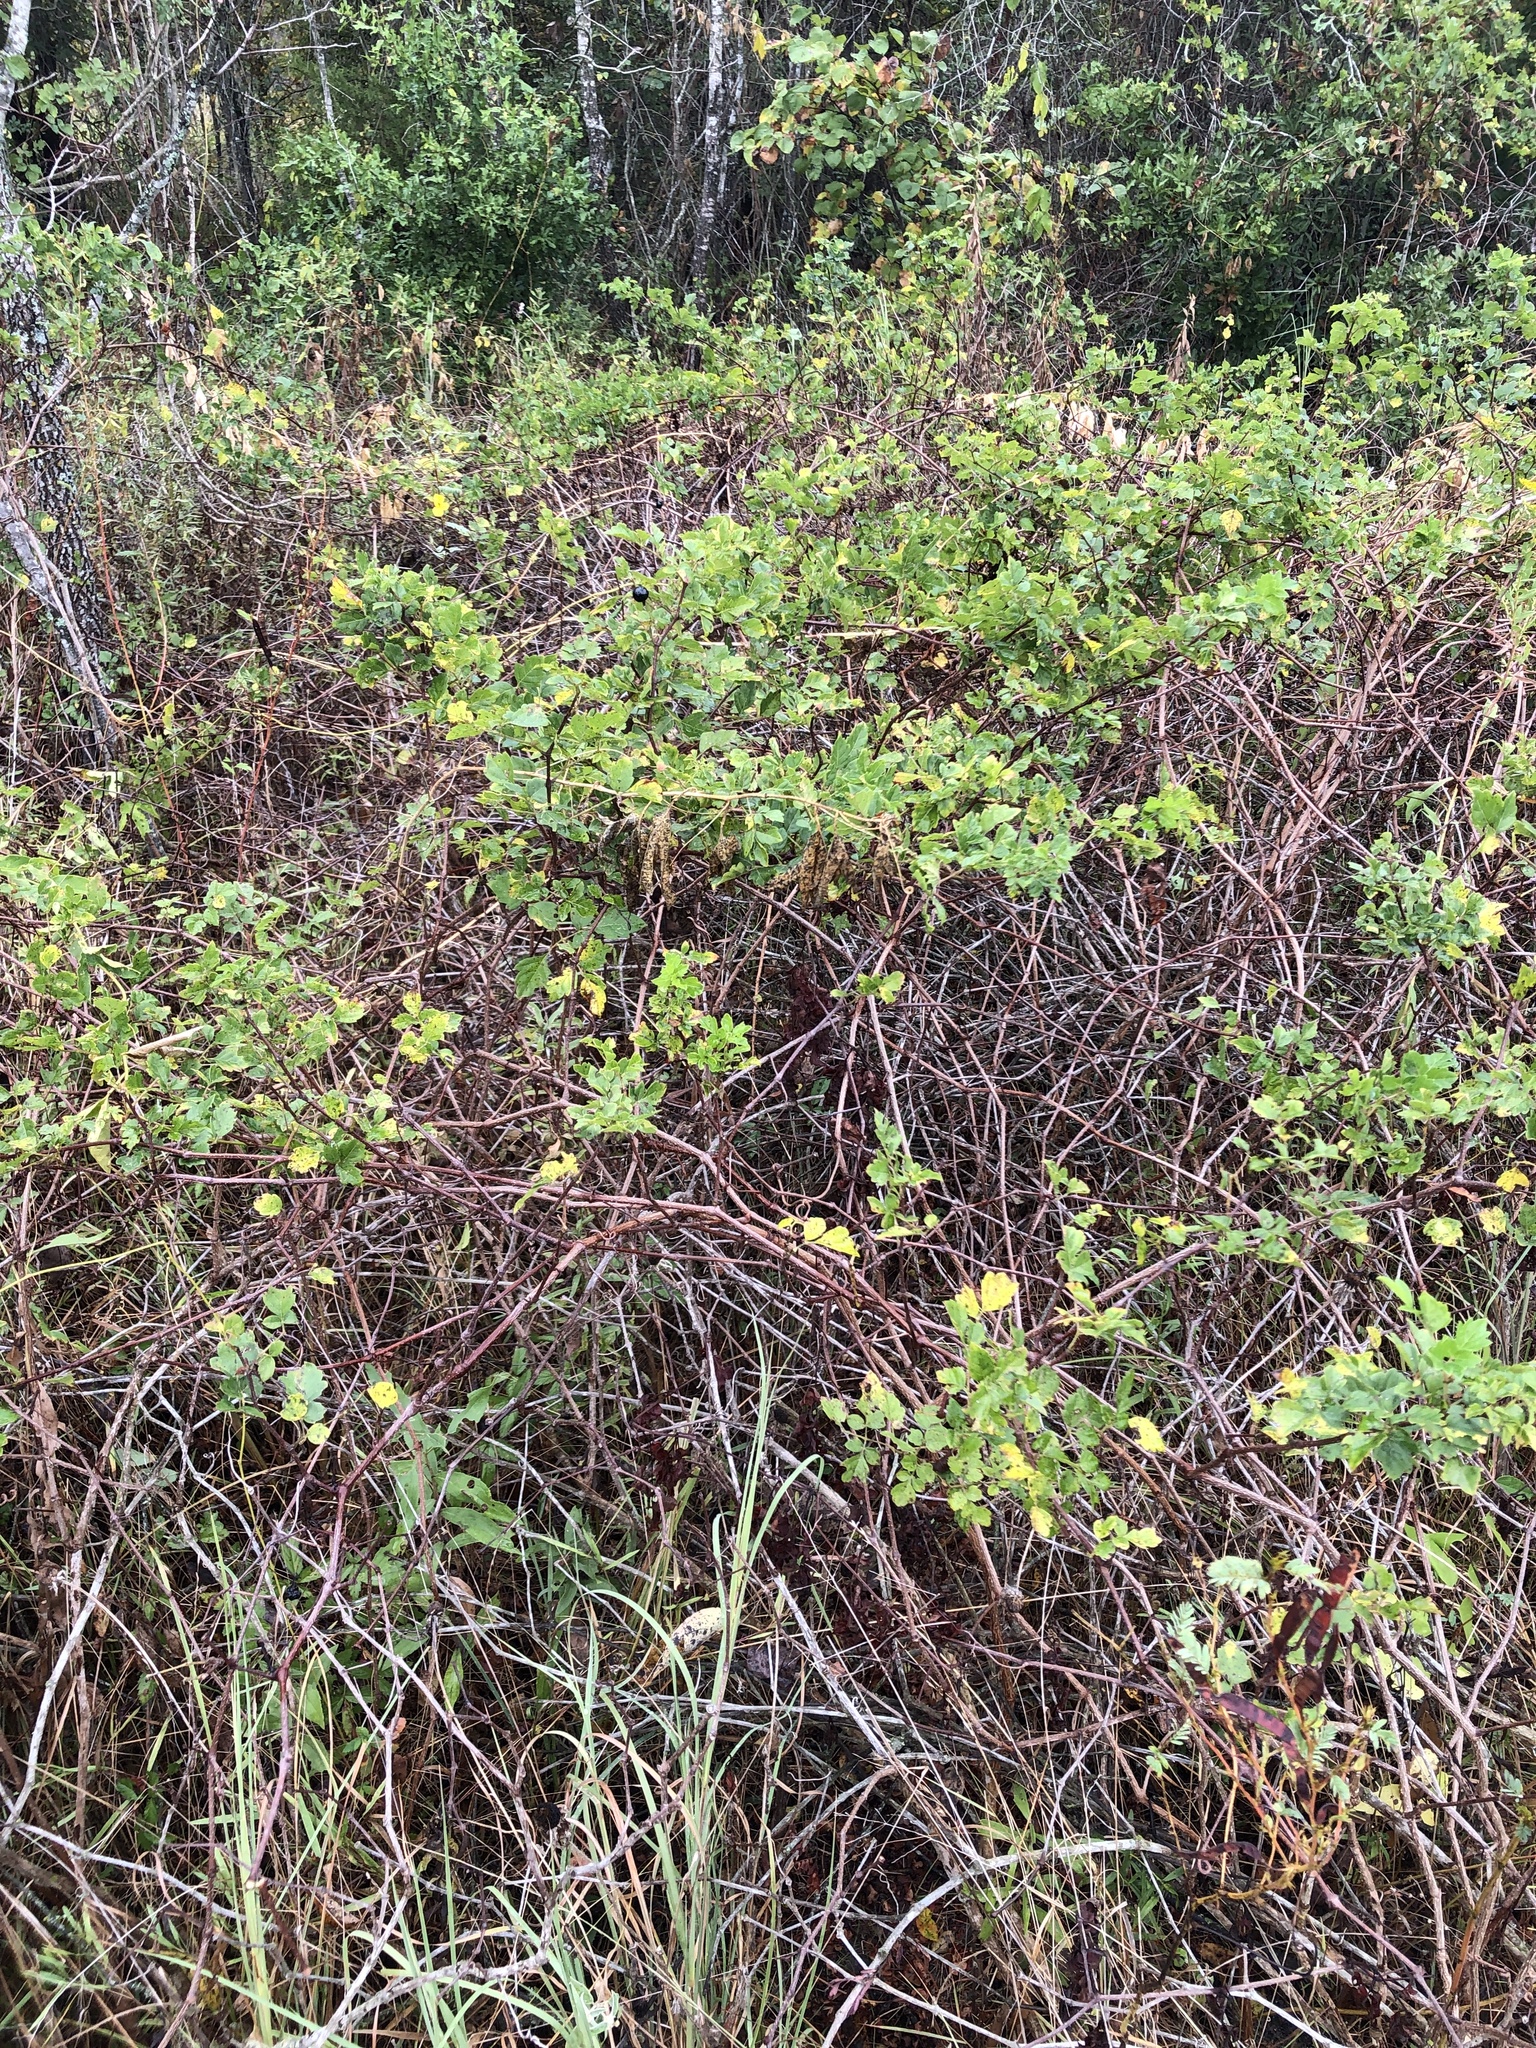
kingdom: Plantae
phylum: Tracheophyta
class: Magnoliopsida
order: Vitales
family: Vitaceae
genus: Nekemias
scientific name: Nekemias arborea
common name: Peppervine
